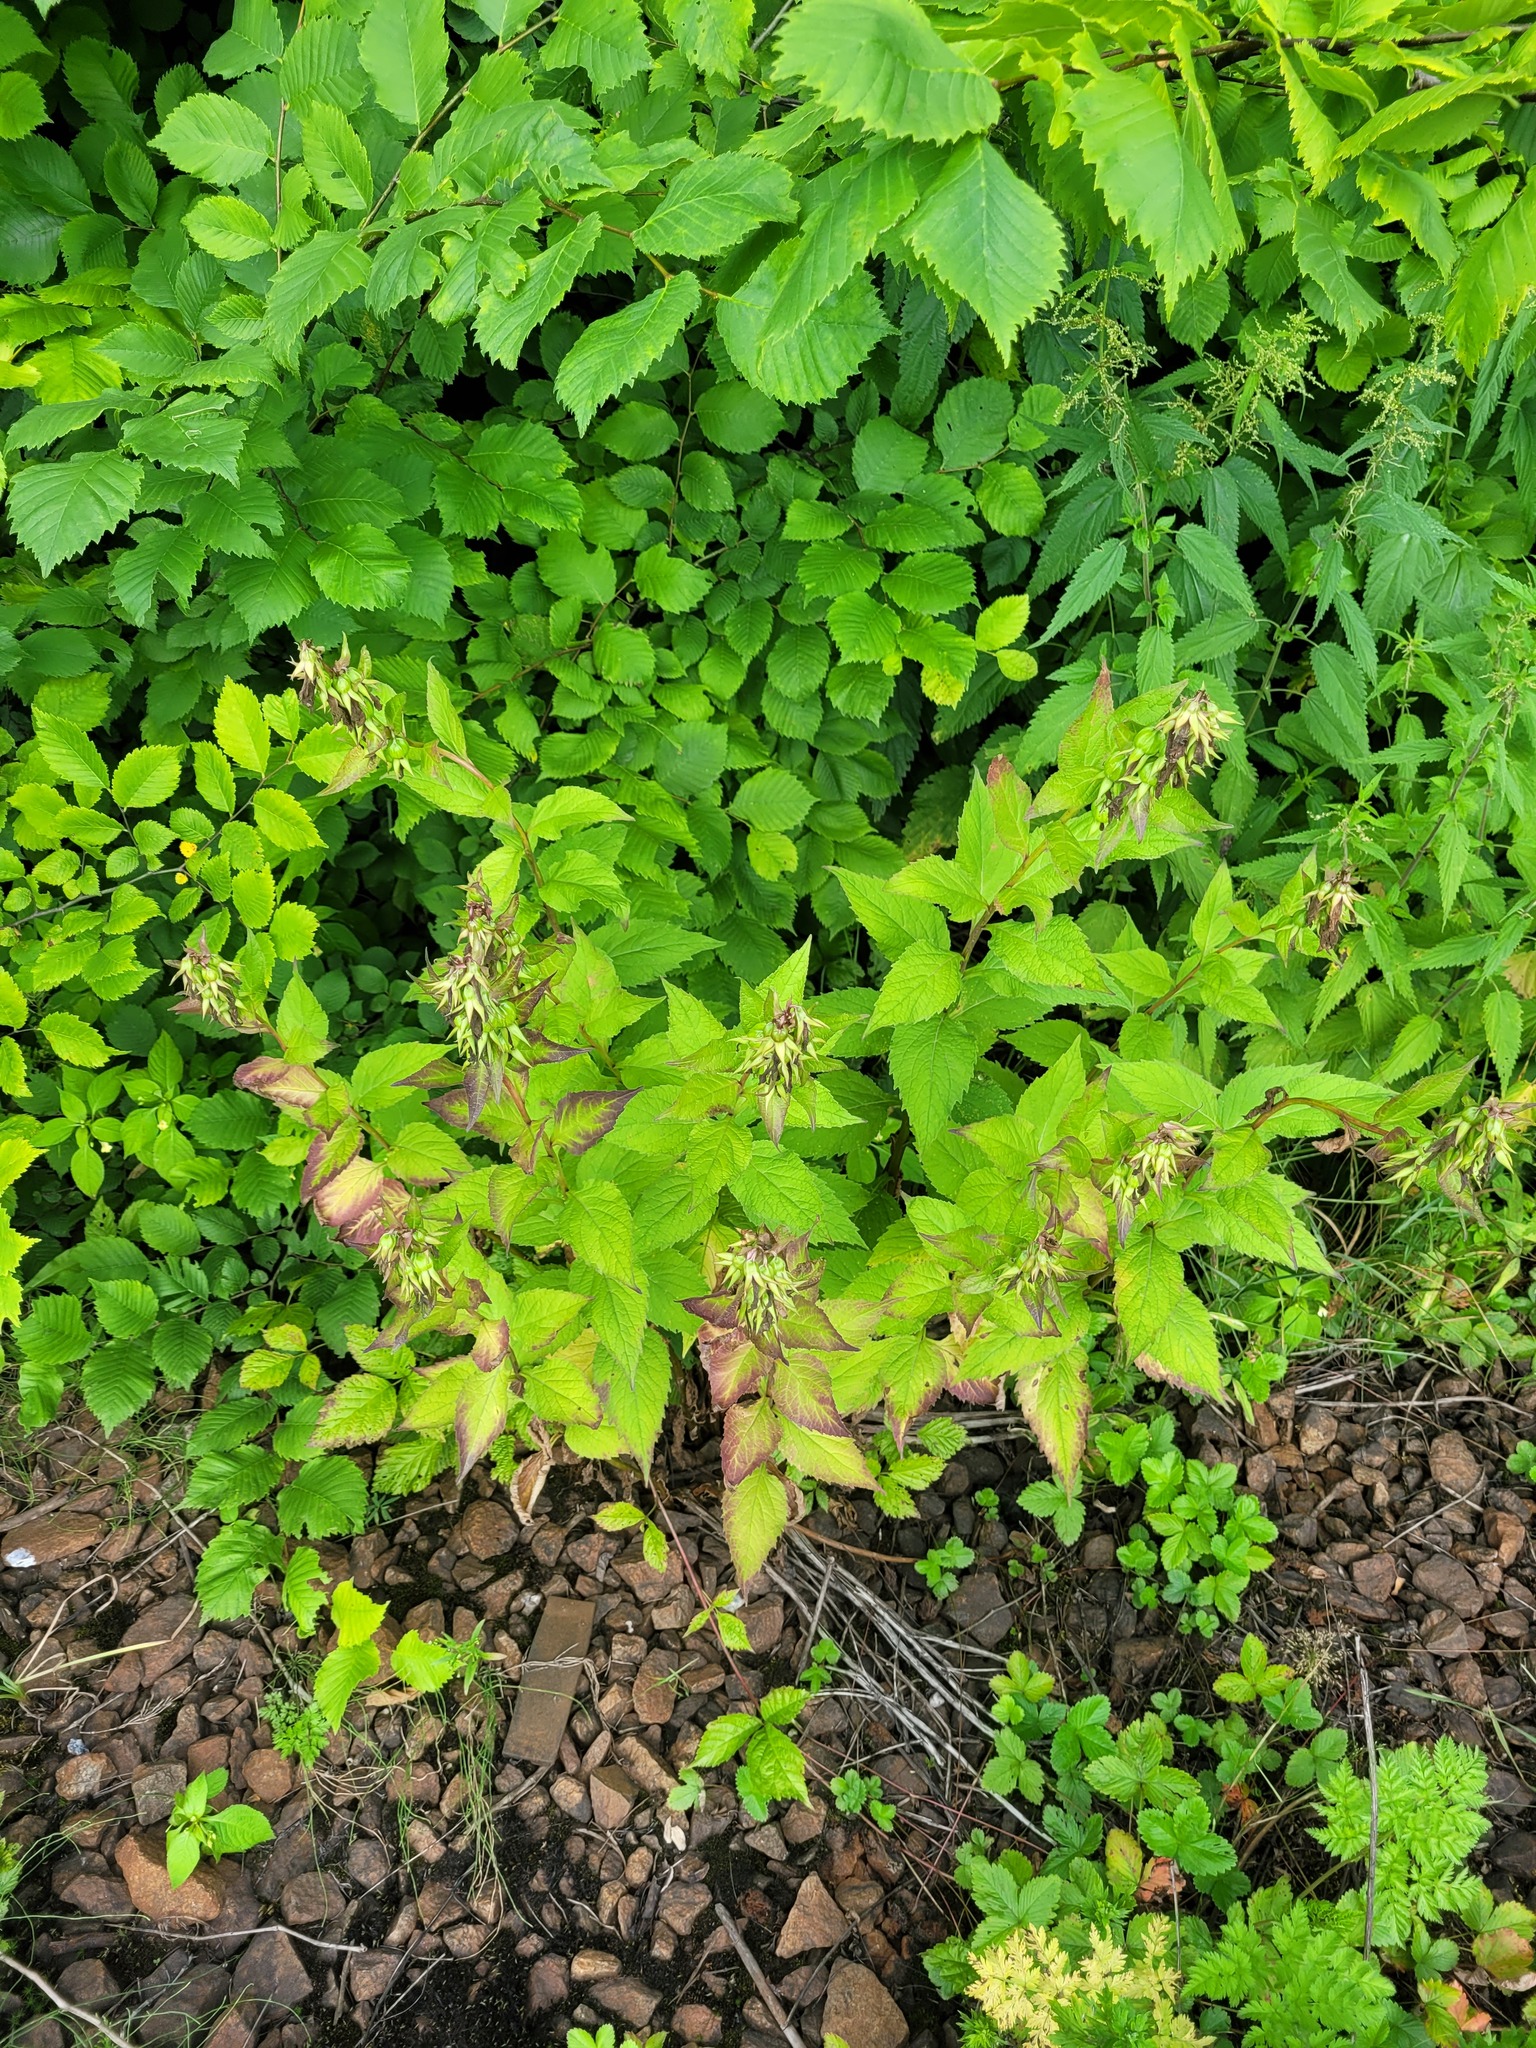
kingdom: Plantae
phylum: Tracheophyta
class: Magnoliopsida
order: Asterales
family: Campanulaceae
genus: Campanula
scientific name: Campanula latifolia
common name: Giant bellflower
